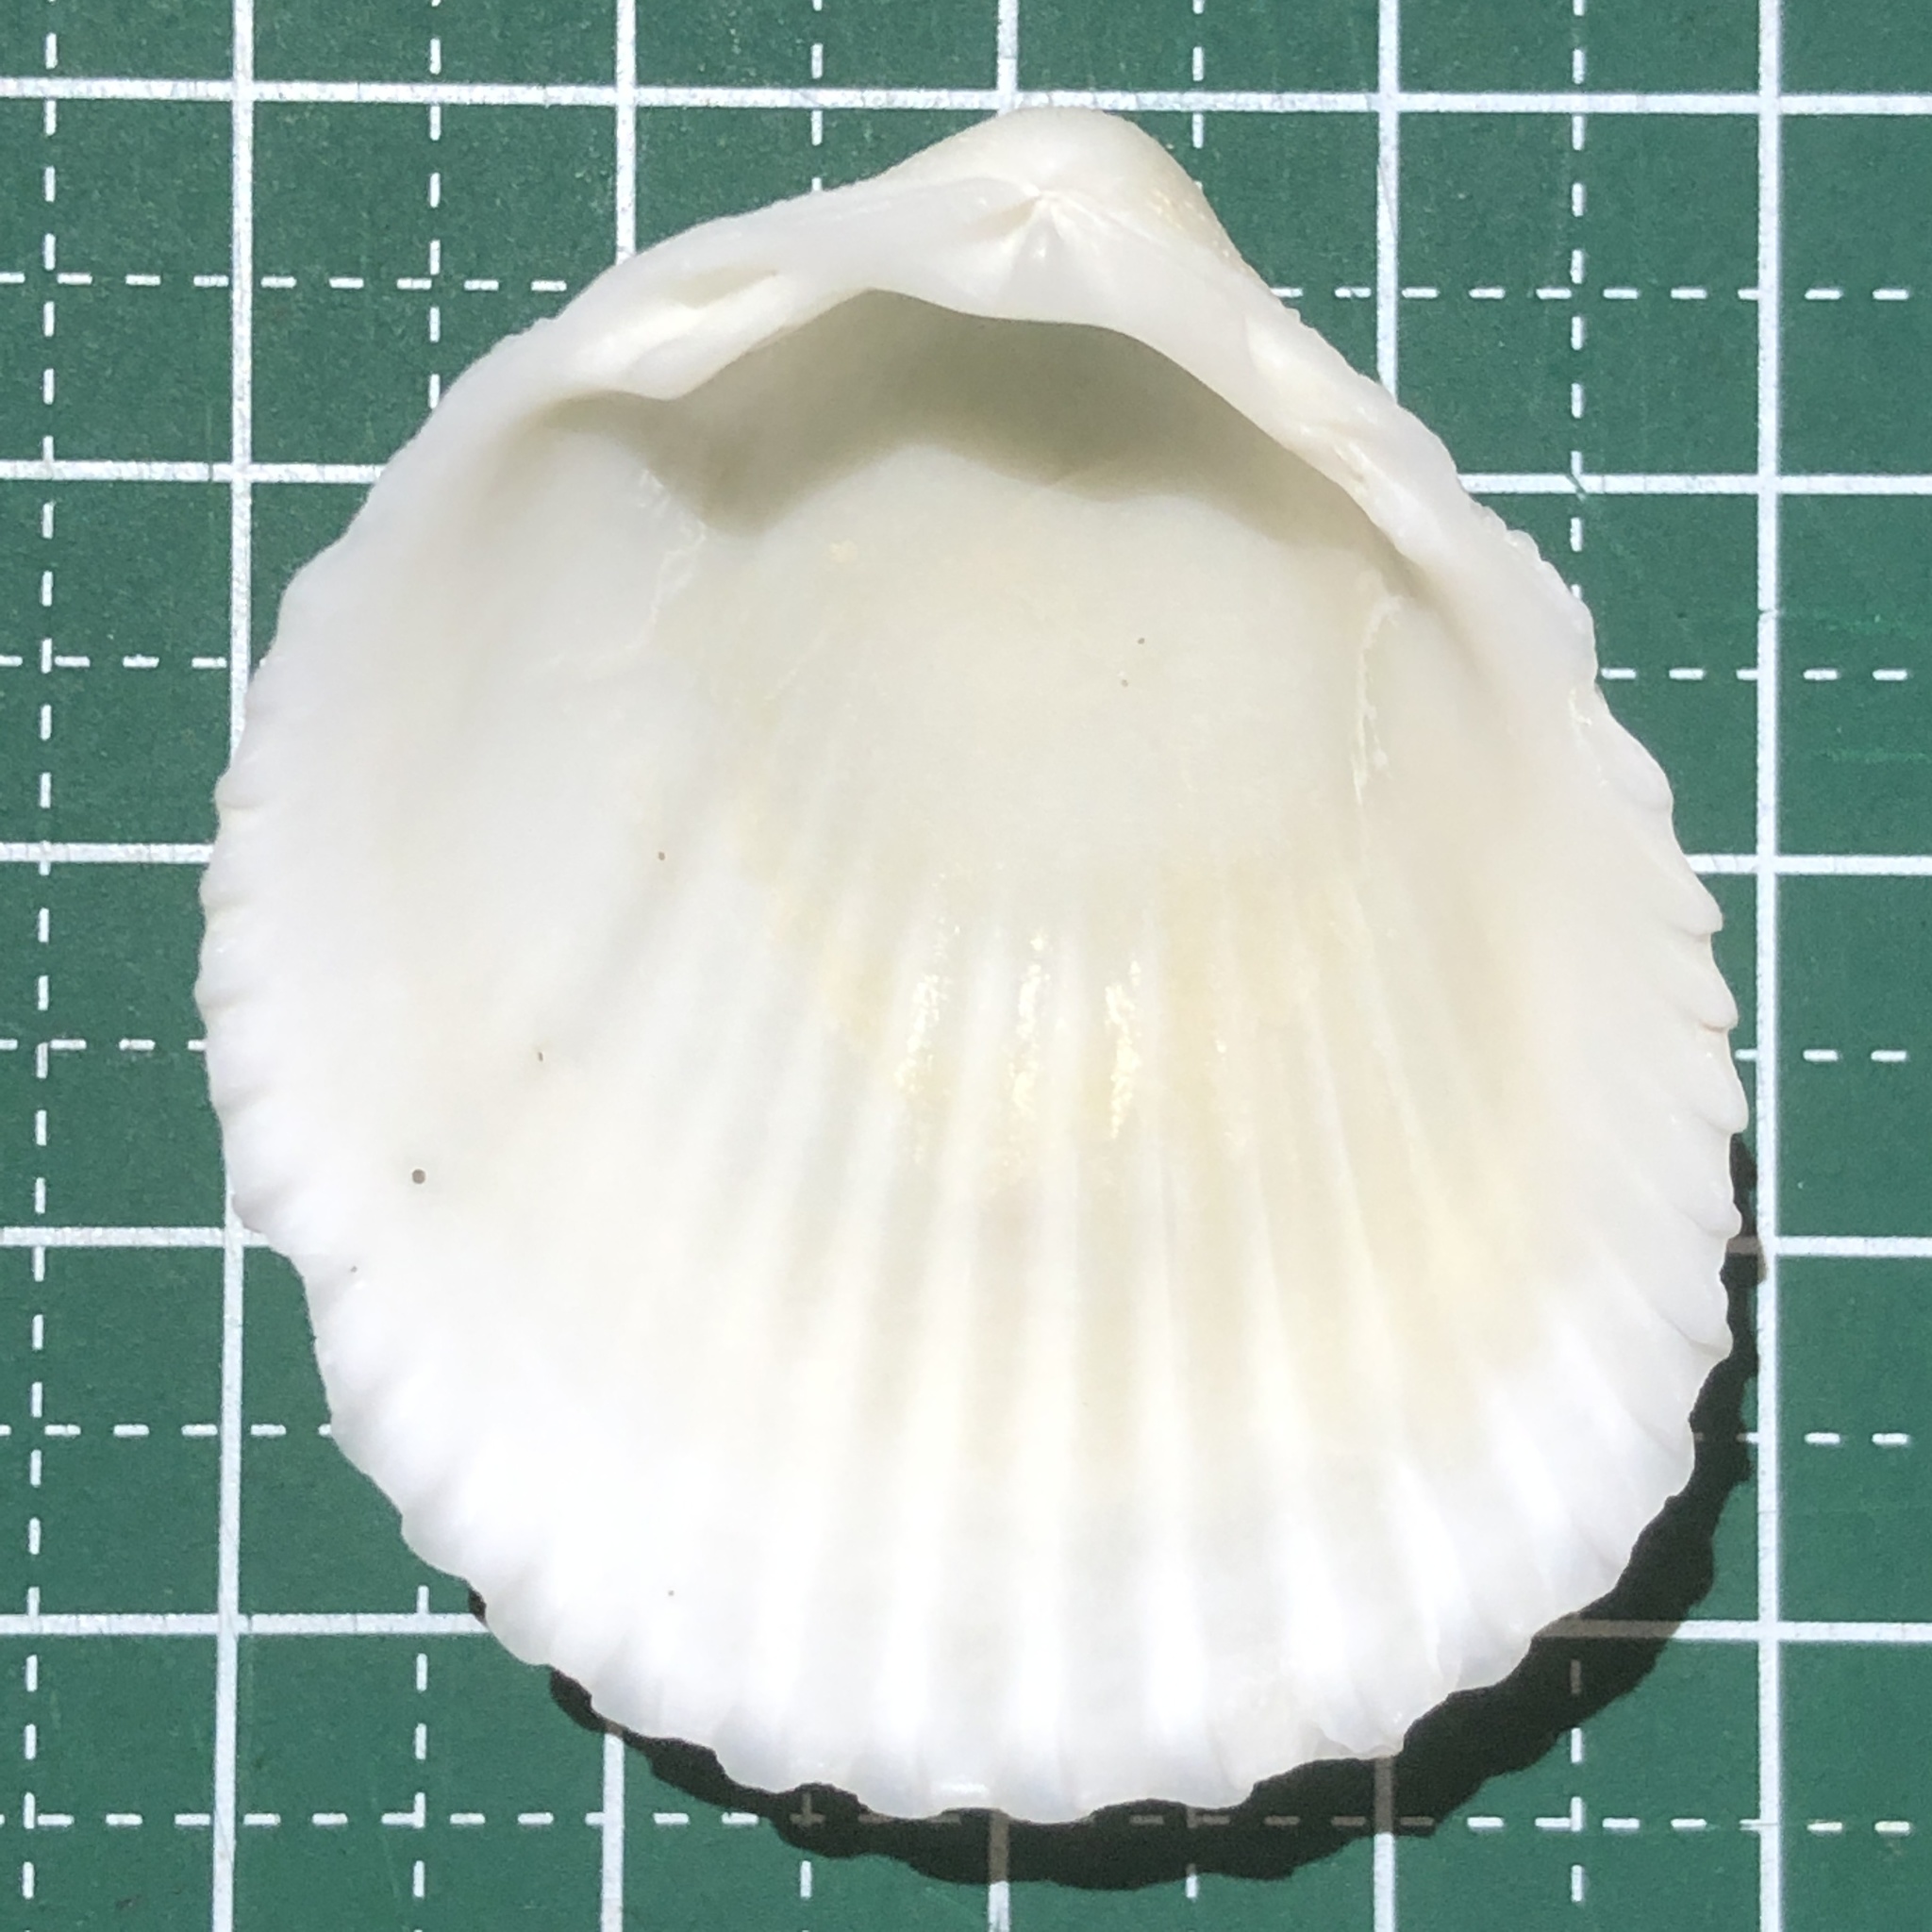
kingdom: Animalia
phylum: Mollusca
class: Bivalvia
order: Cardiida
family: Cardiidae
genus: Vasticardium
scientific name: Vasticardium pectiniforme
